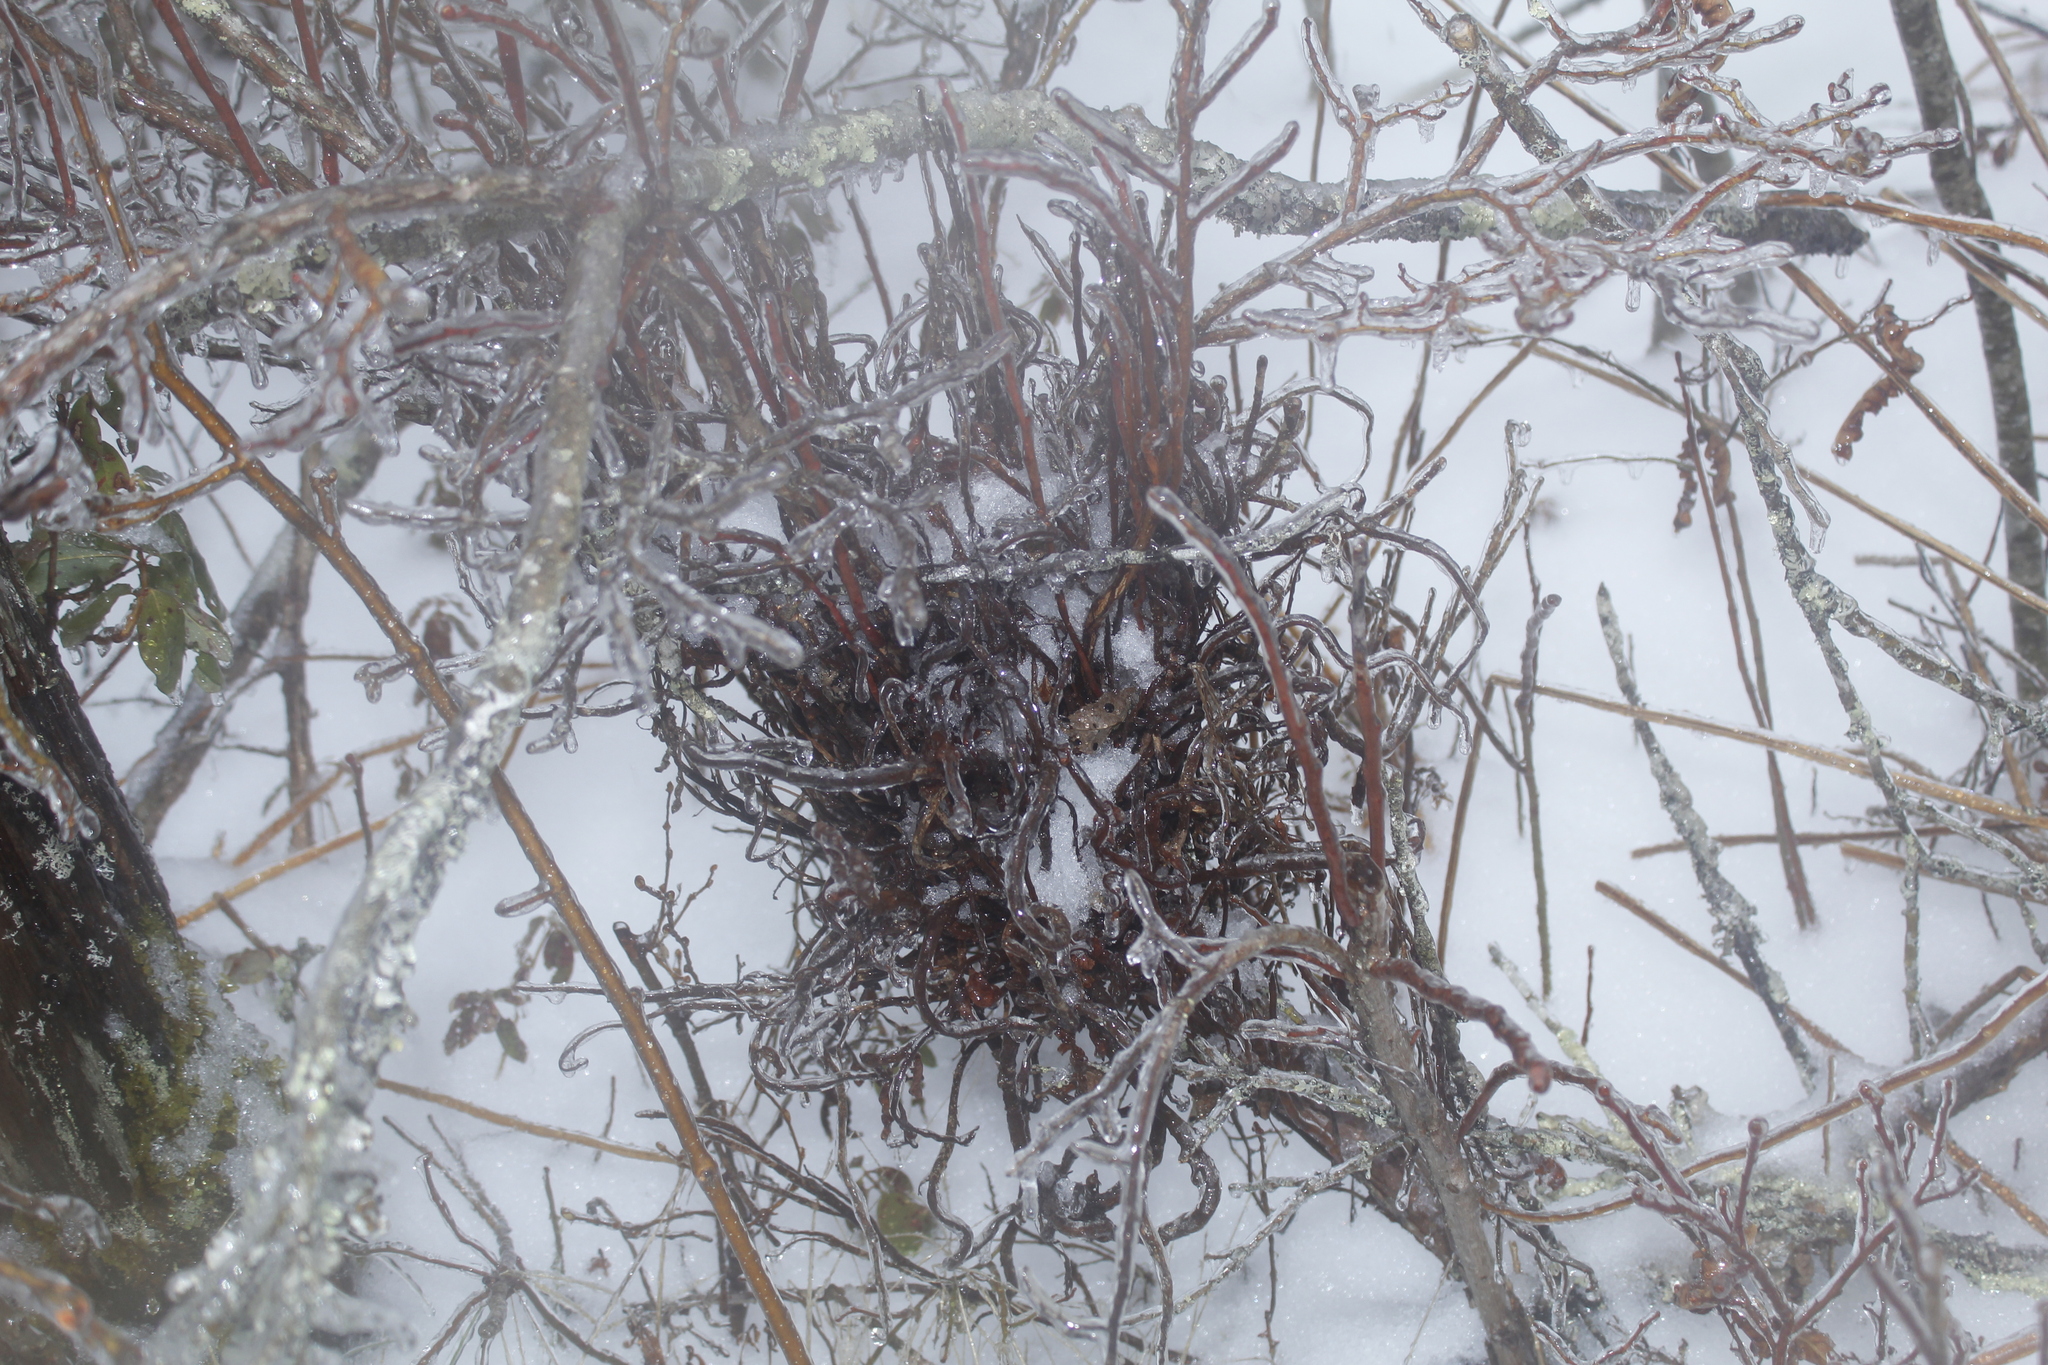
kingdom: Fungi
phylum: Basidiomycota
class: Pucciniomycetes
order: Pucciniales
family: Pucciniastraceae
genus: Calyptospora
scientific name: Calyptospora columnaris
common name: Huckleberry broom rust fungus
